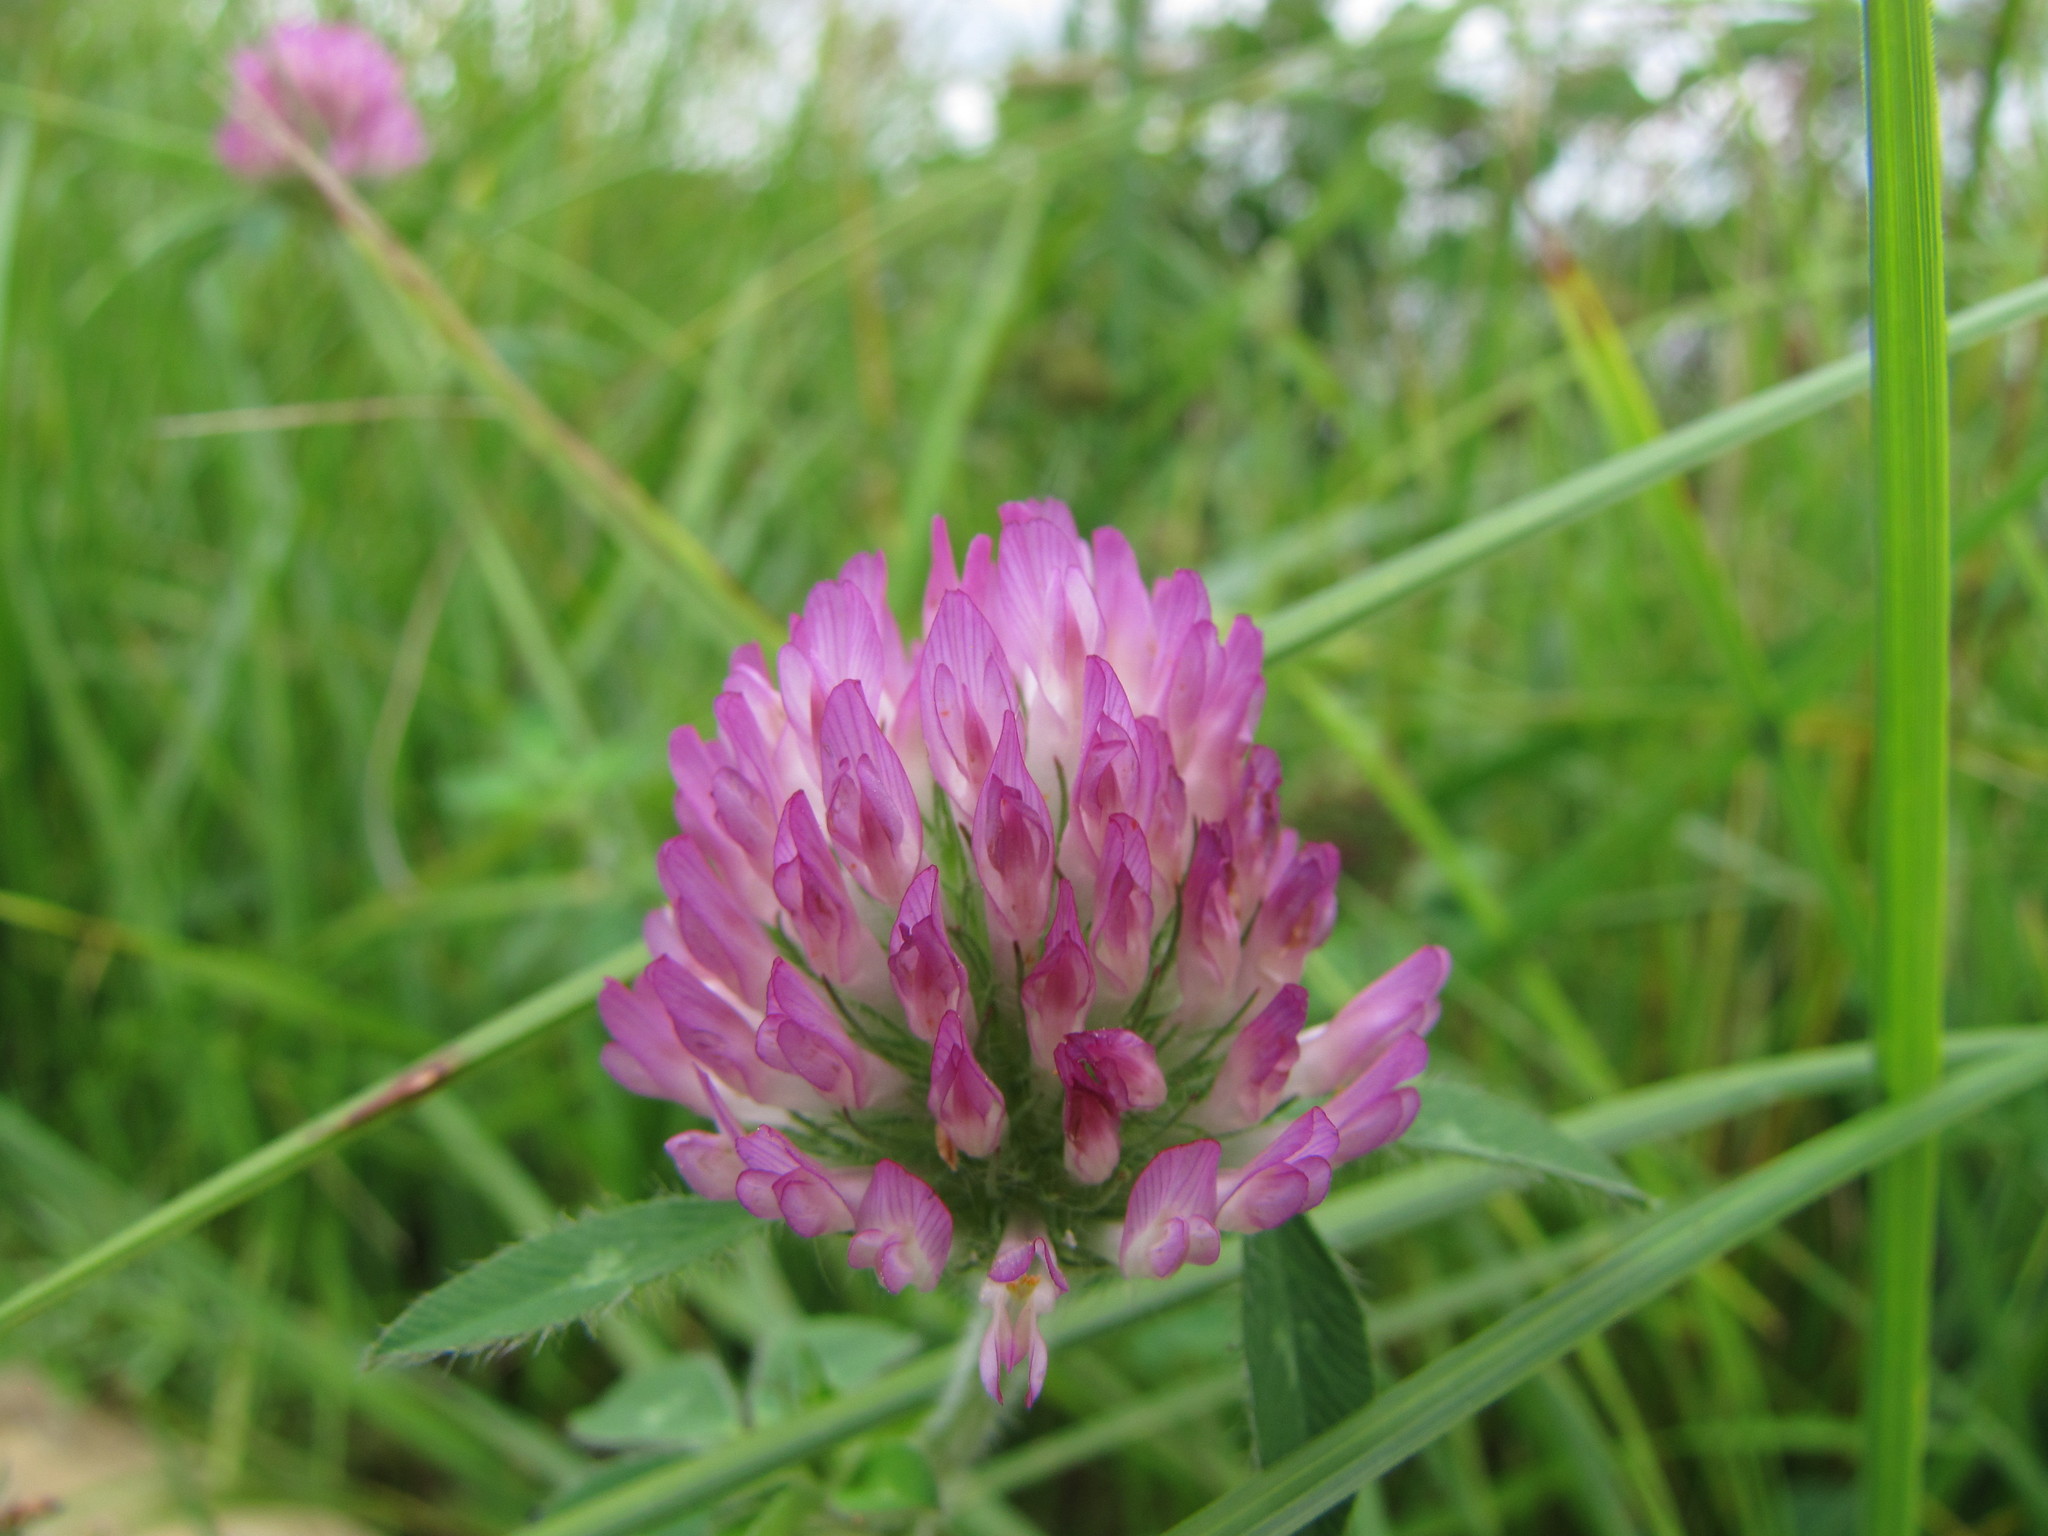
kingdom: Plantae
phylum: Tracheophyta
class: Magnoliopsida
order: Fabales
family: Fabaceae
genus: Trifolium
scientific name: Trifolium pratense
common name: Red clover
